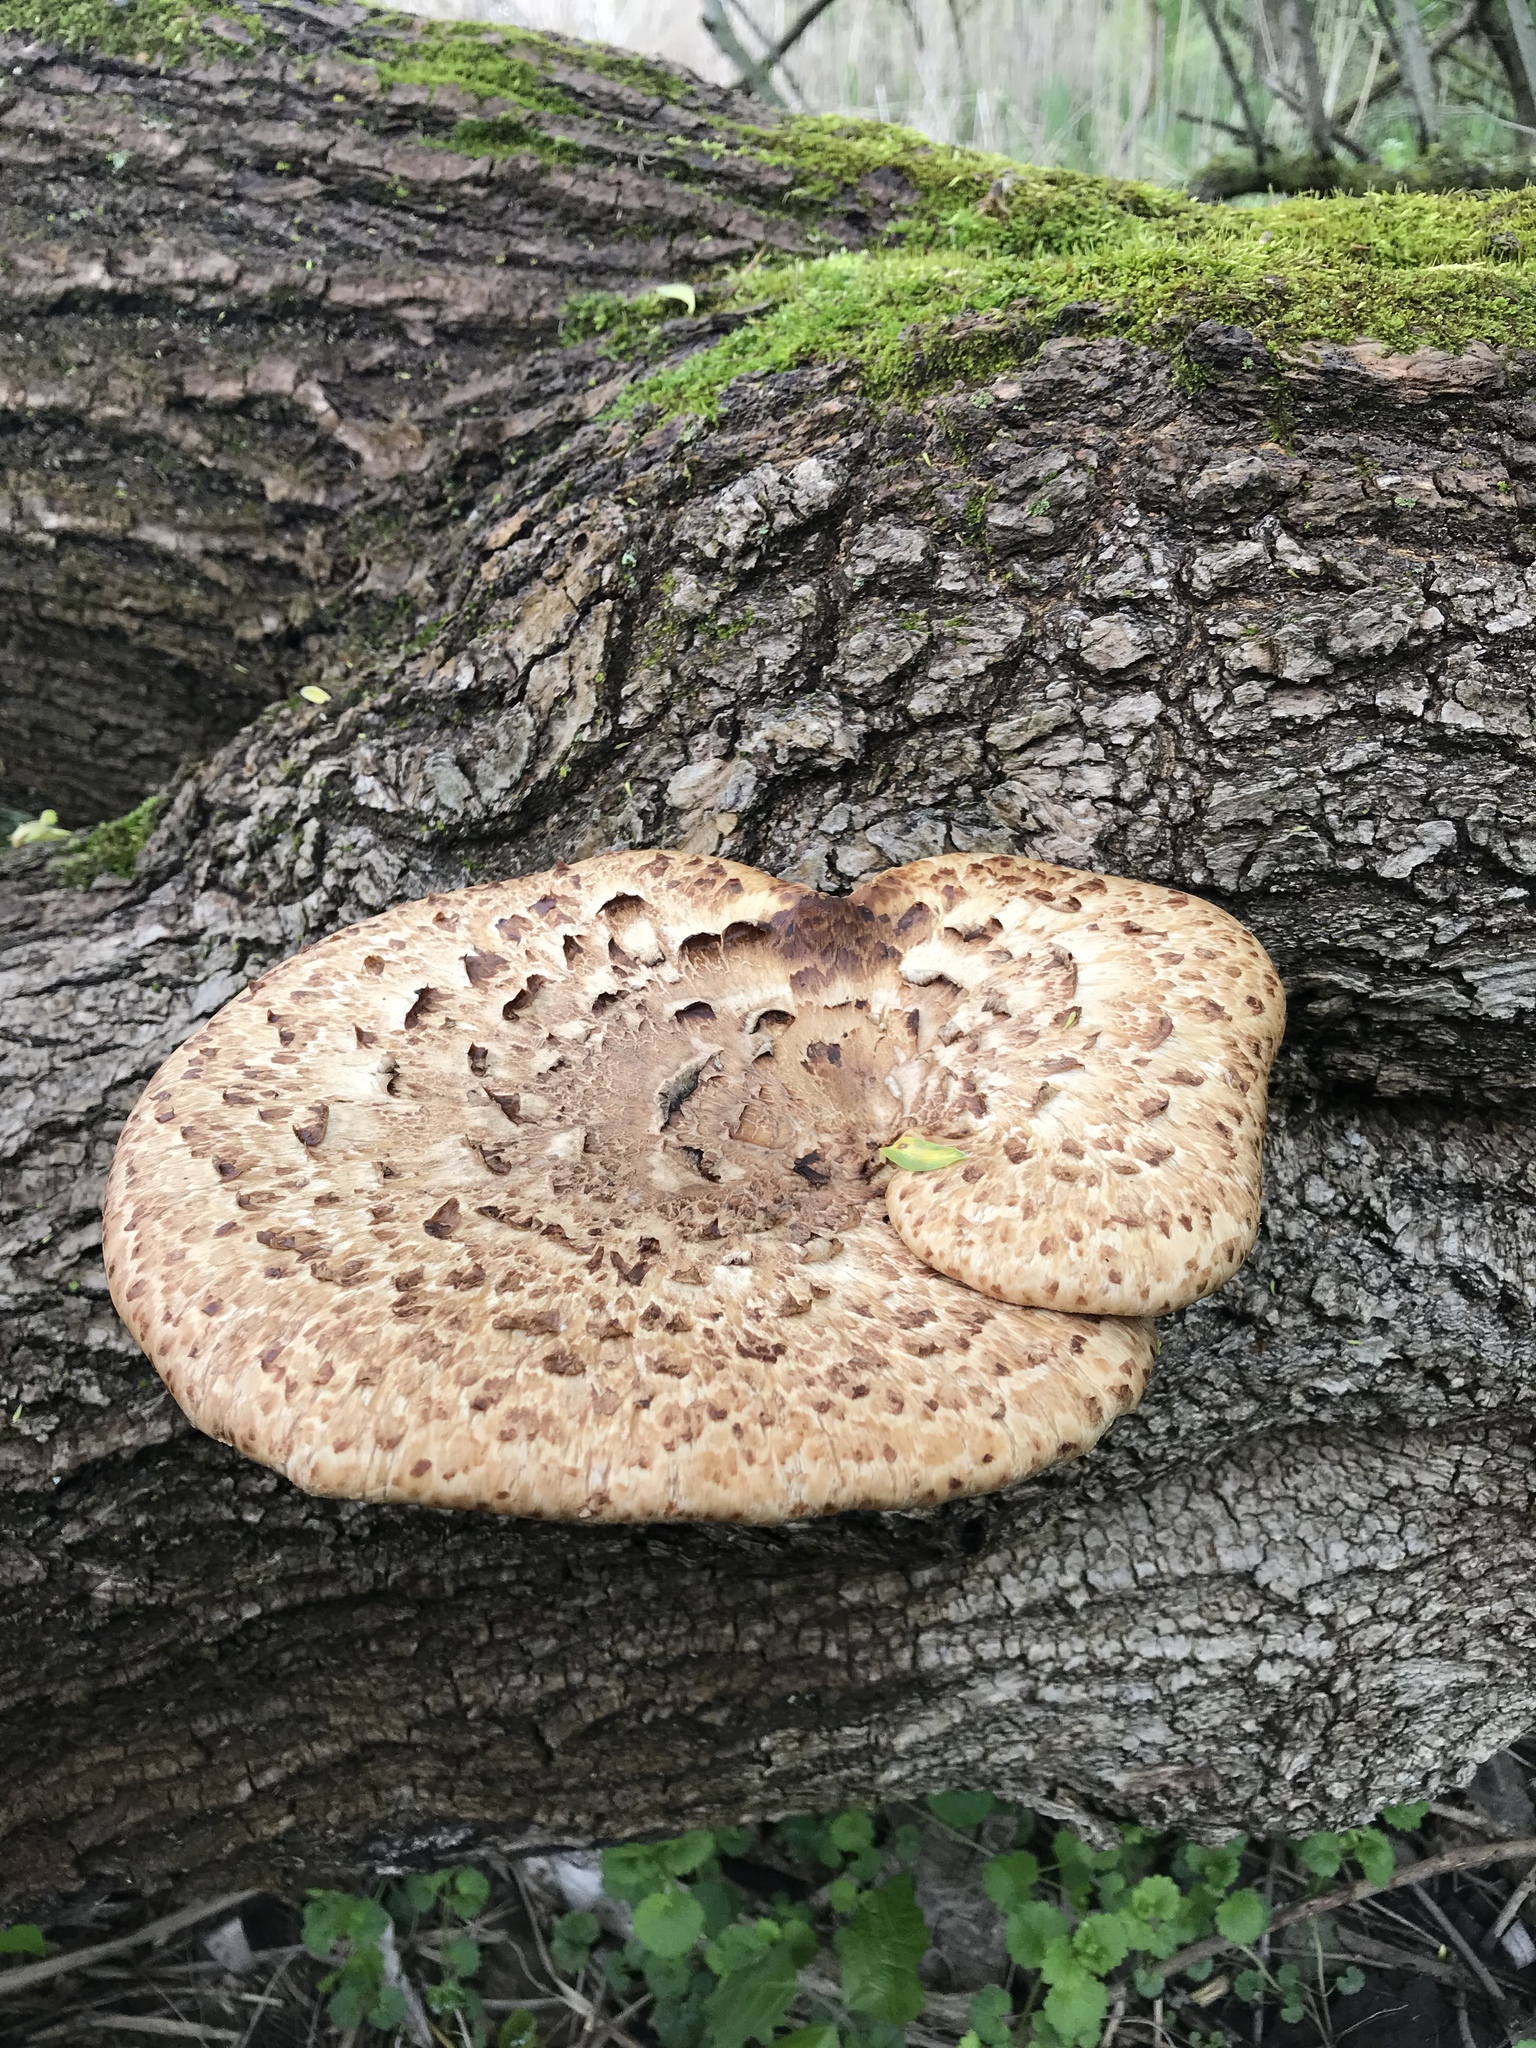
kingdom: Fungi
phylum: Basidiomycota
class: Agaricomycetes
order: Polyporales
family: Polyporaceae
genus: Cerioporus
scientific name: Cerioporus squamosus
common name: Dryad's saddle
